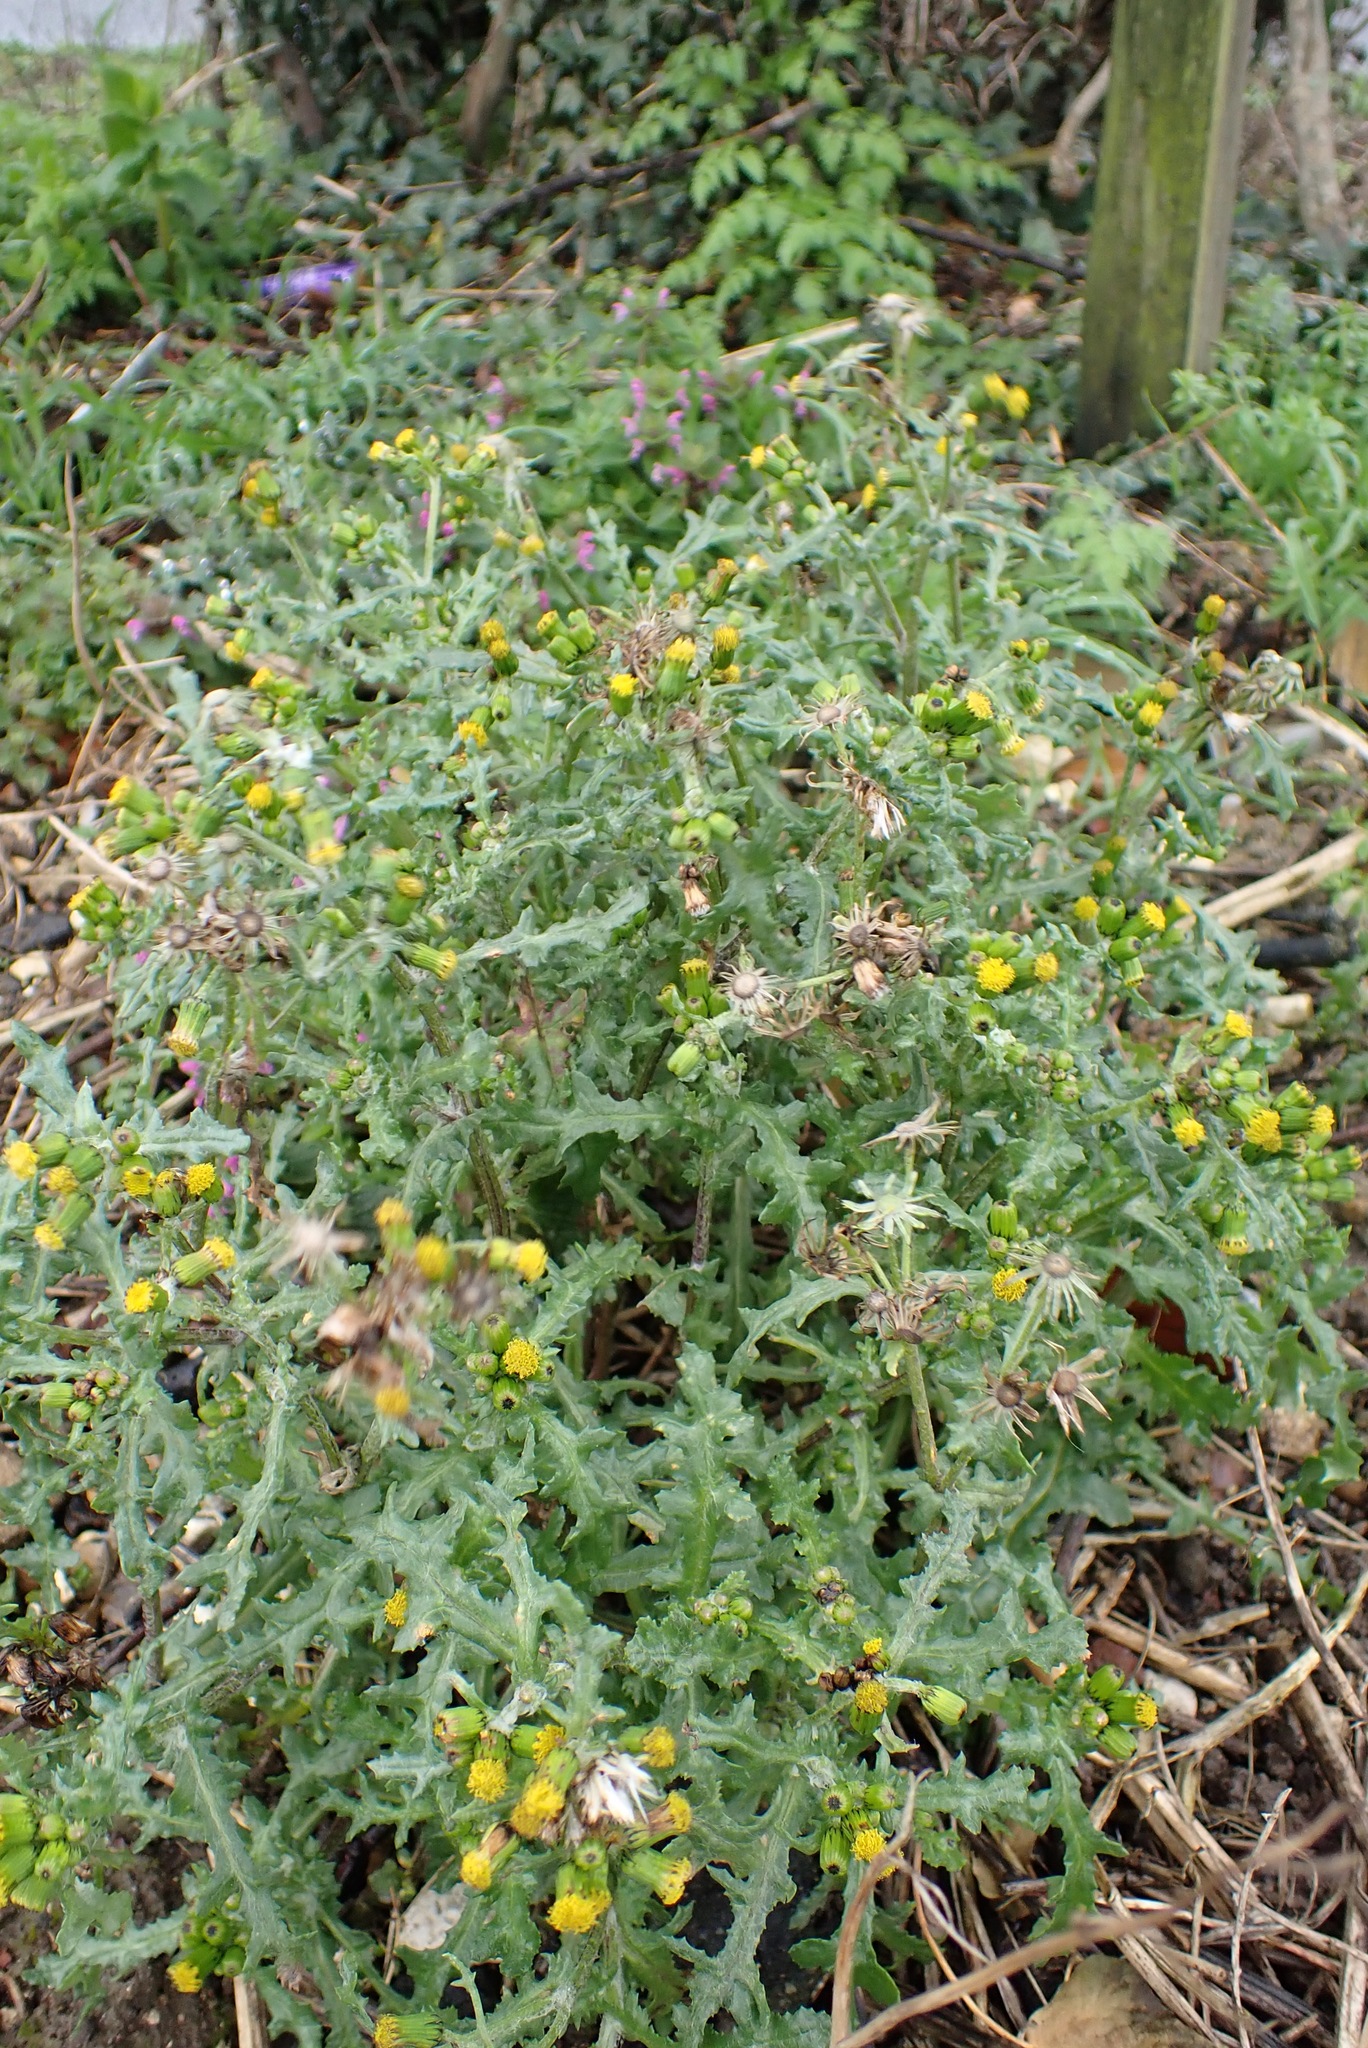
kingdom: Plantae
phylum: Tracheophyta
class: Magnoliopsida
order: Asterales
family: Asteraceae
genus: Senecio
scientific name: Senecio vulgaris
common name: Old-man-in-the-spring
